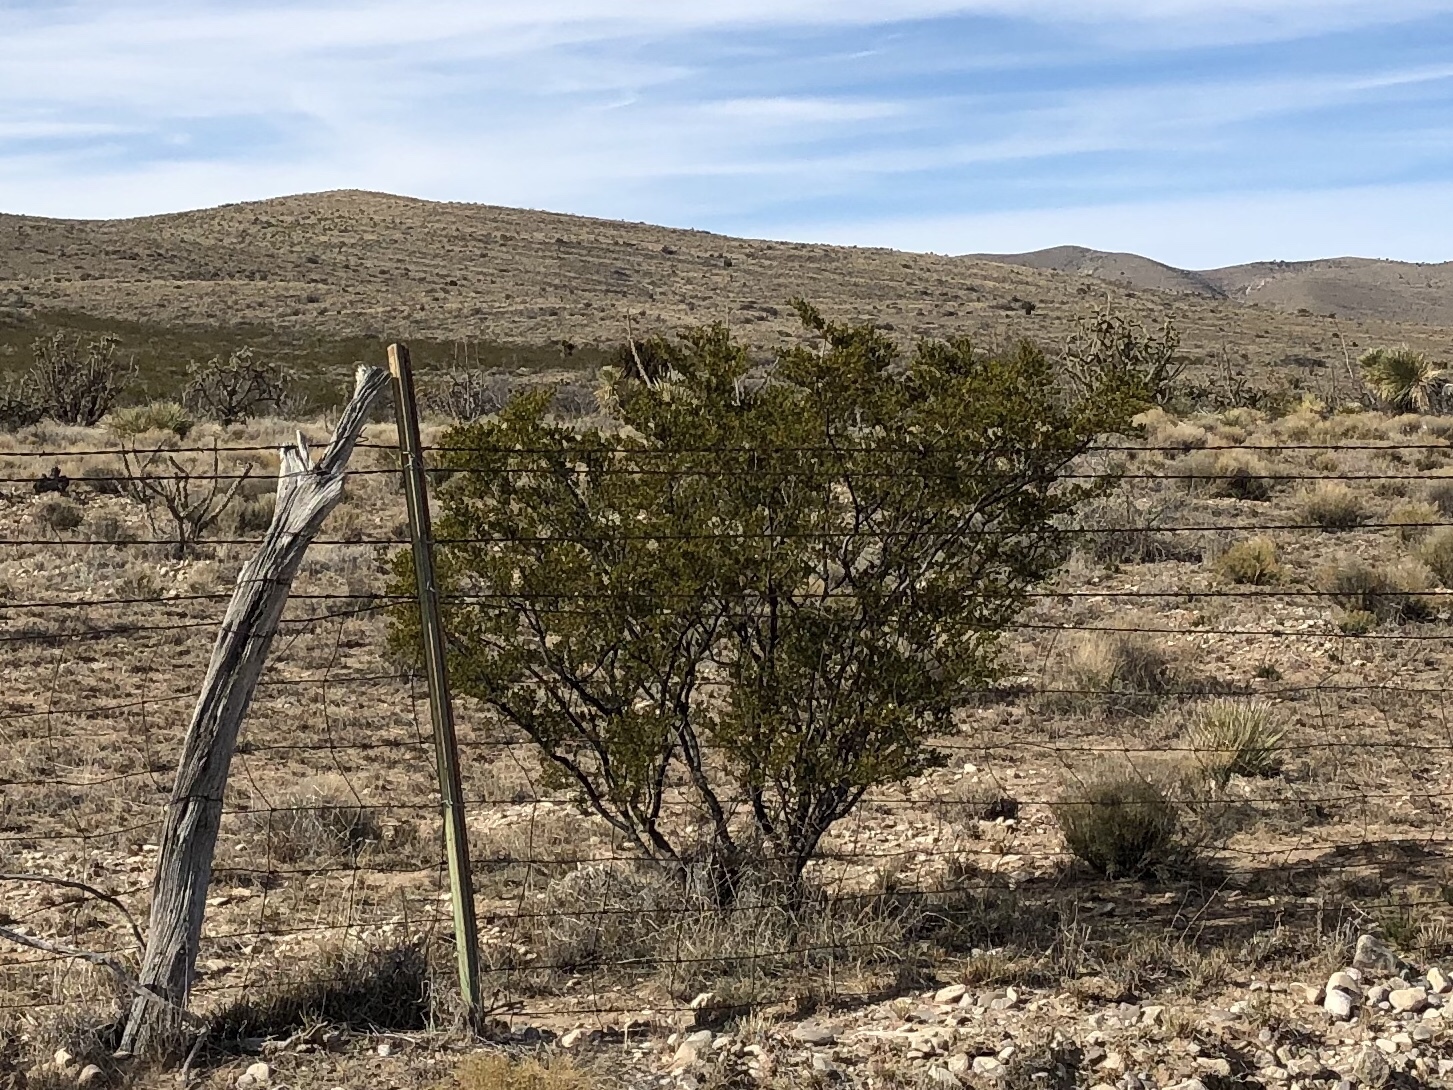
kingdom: Plantae
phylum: Tracheophyta
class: Magnoliopsida
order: Zygophyllales
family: Zygophyllaceae
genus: Larrea
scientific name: Larrea tridentata
